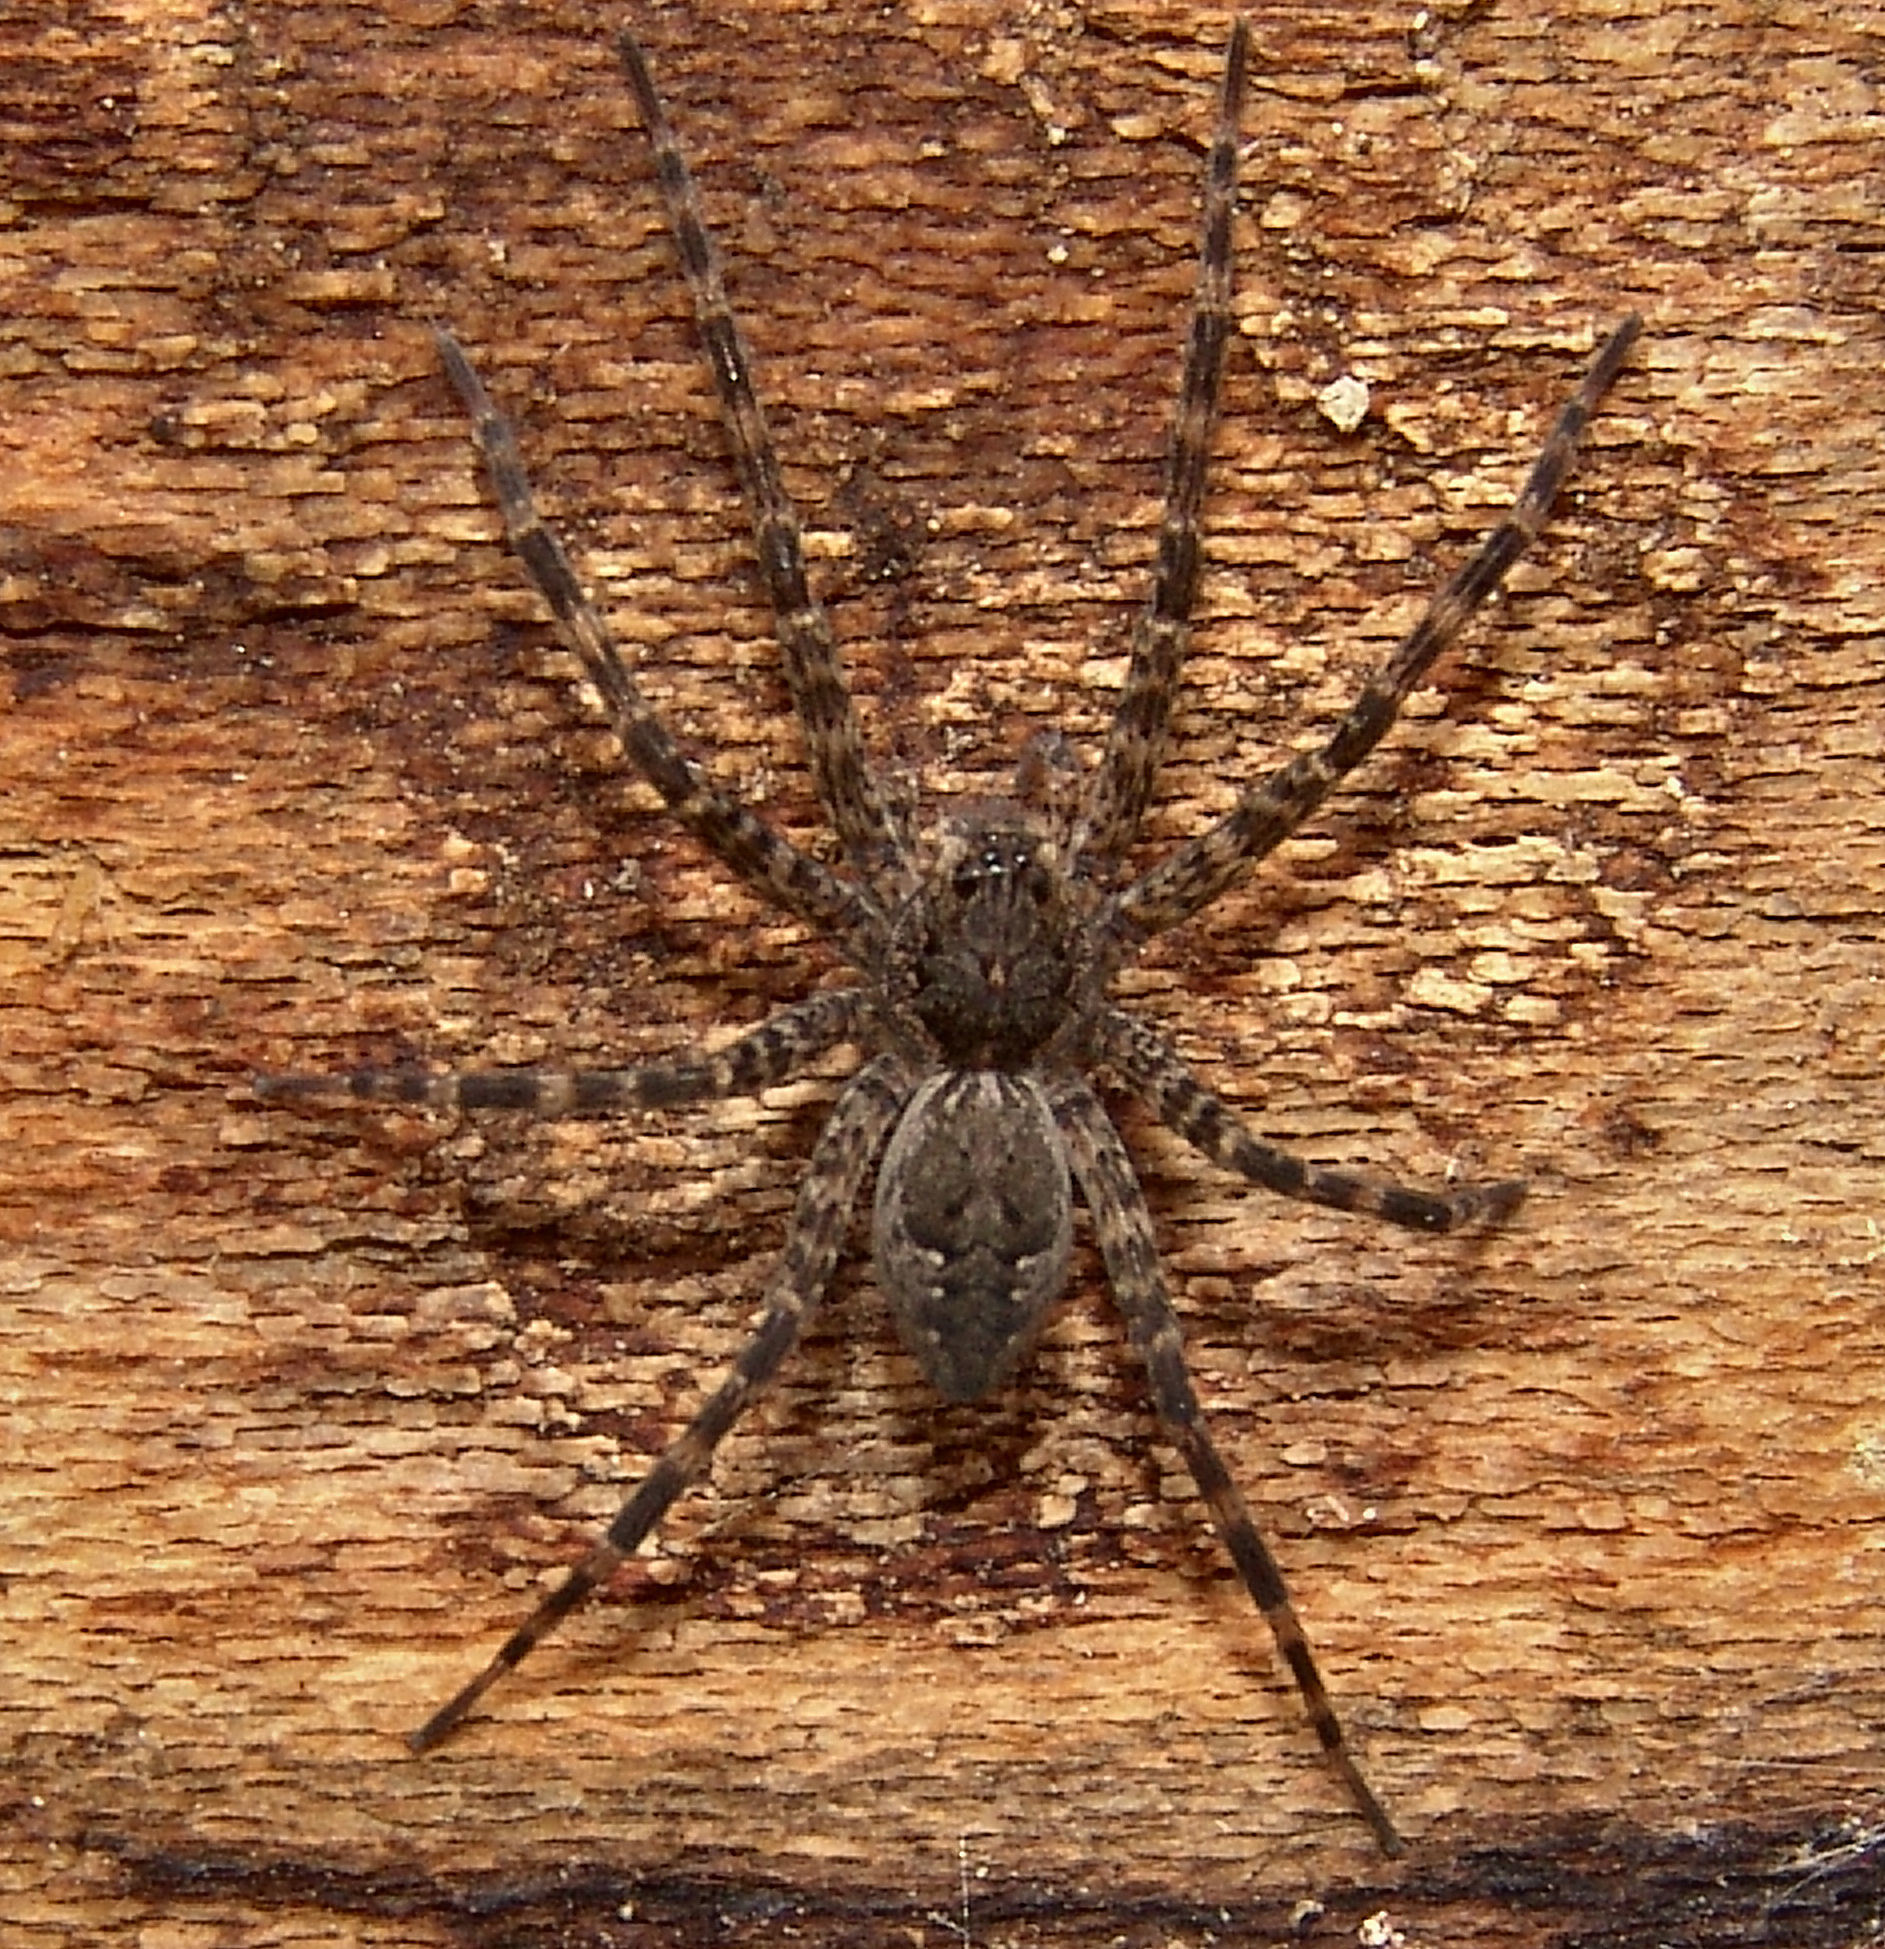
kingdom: Animalia
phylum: Arthropoda
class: Arachnida
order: Araneae
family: Pisauridae
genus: Dolomedes
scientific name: Dolomedes tenebrosus
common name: Dark fishing spider
